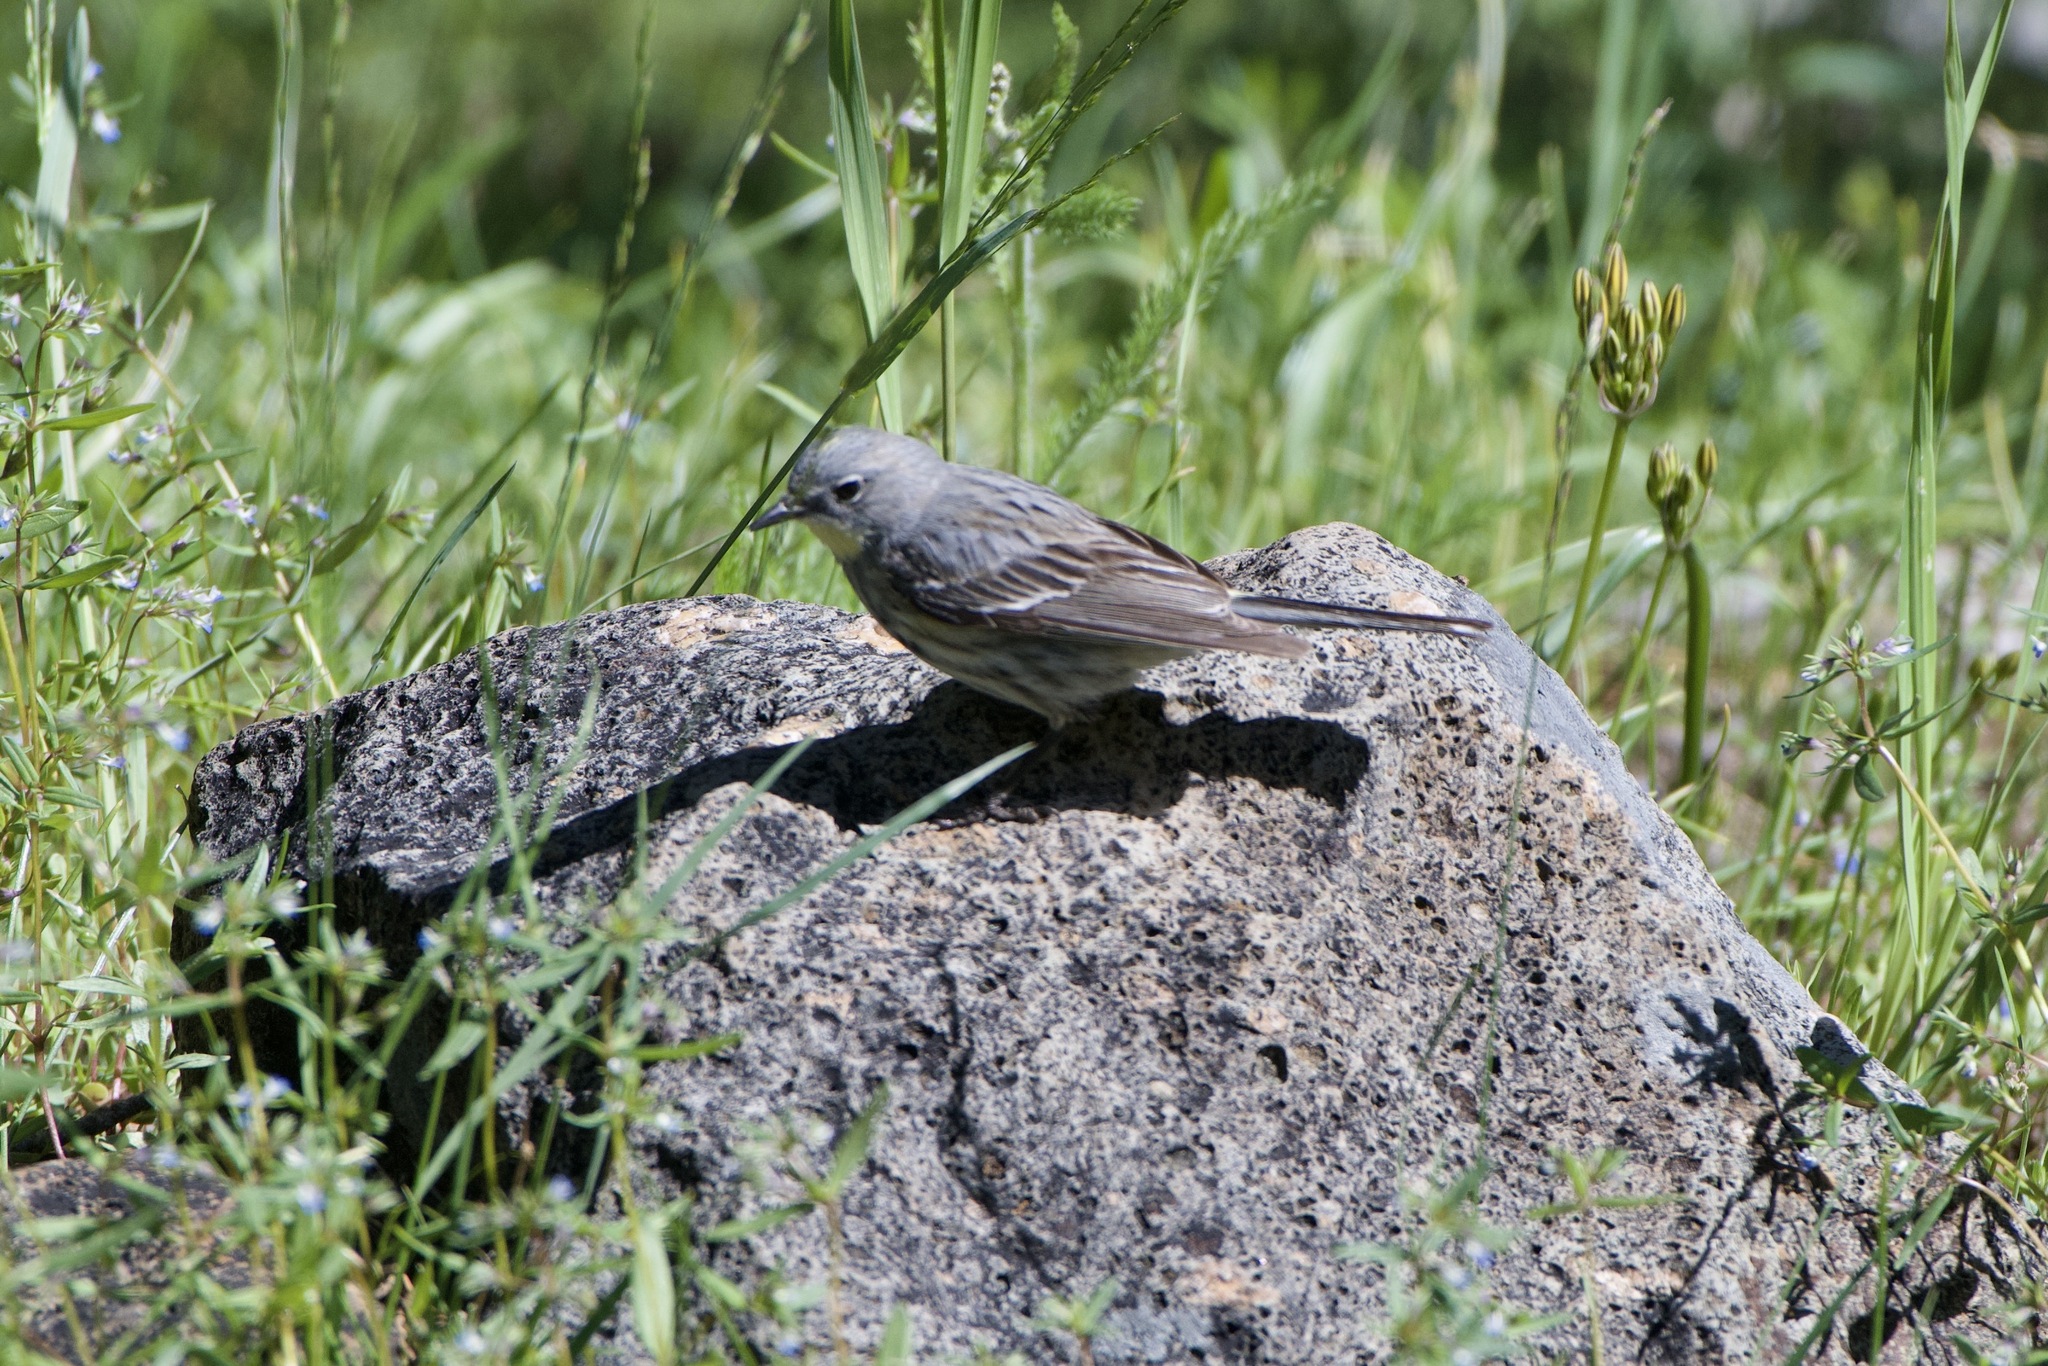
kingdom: Animalia
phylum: Chordata
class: Aves
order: Passeriformes
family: Parulidae
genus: Setophaga
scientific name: Setophaga auduboni
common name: Audubon's warbler
